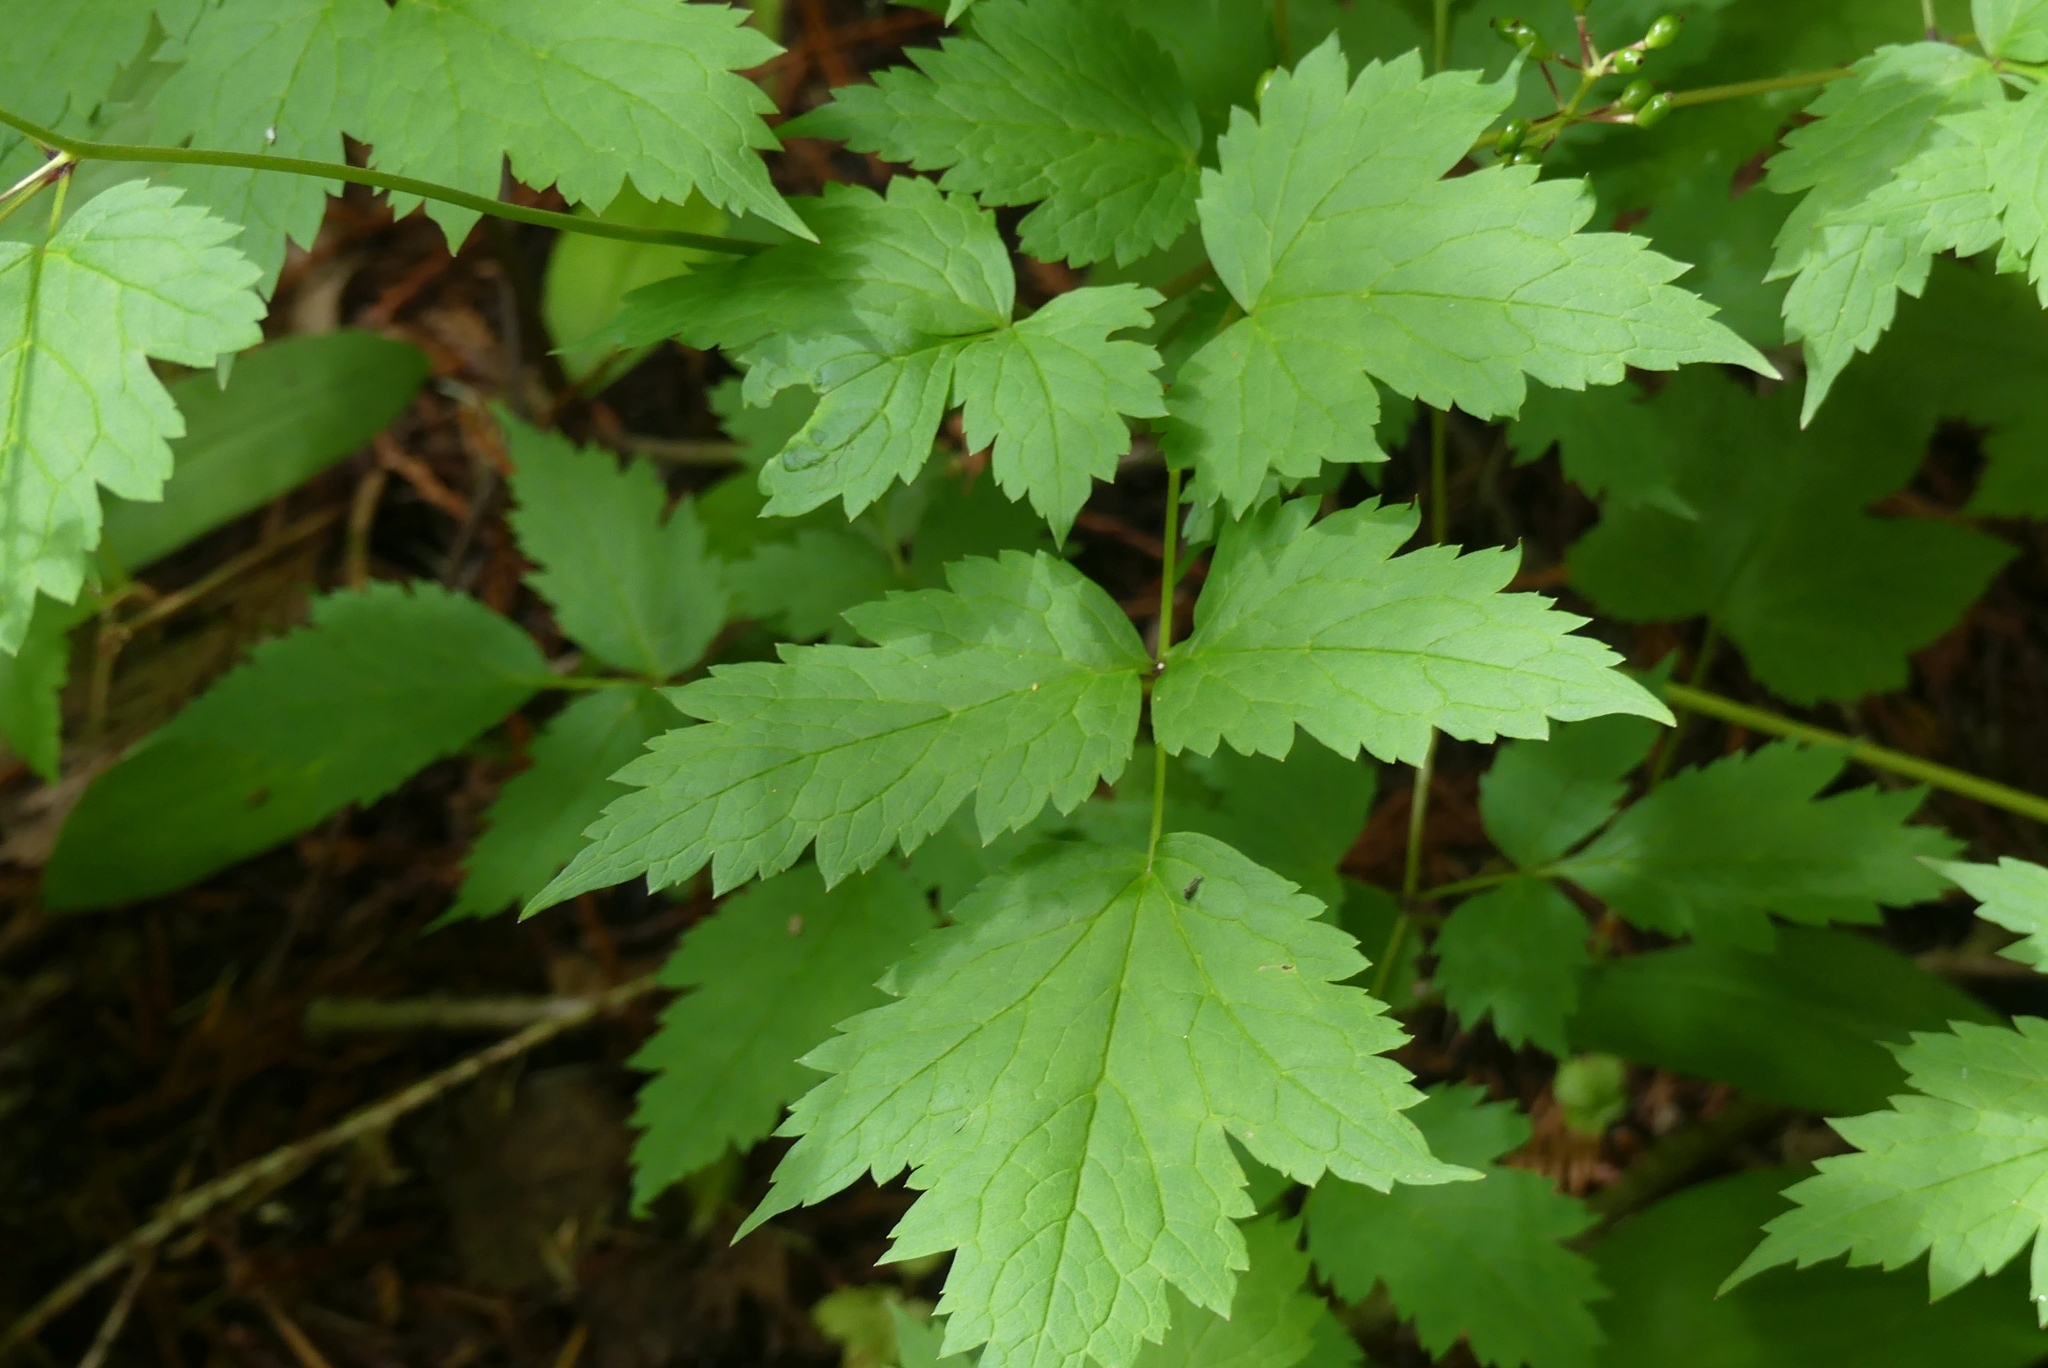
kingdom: Plantae
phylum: Tracheophyta
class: Magnoliopsida
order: Ranunculales
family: Ranunculaceae
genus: Actaea
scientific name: Actaea rubra
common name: Red baneberry
